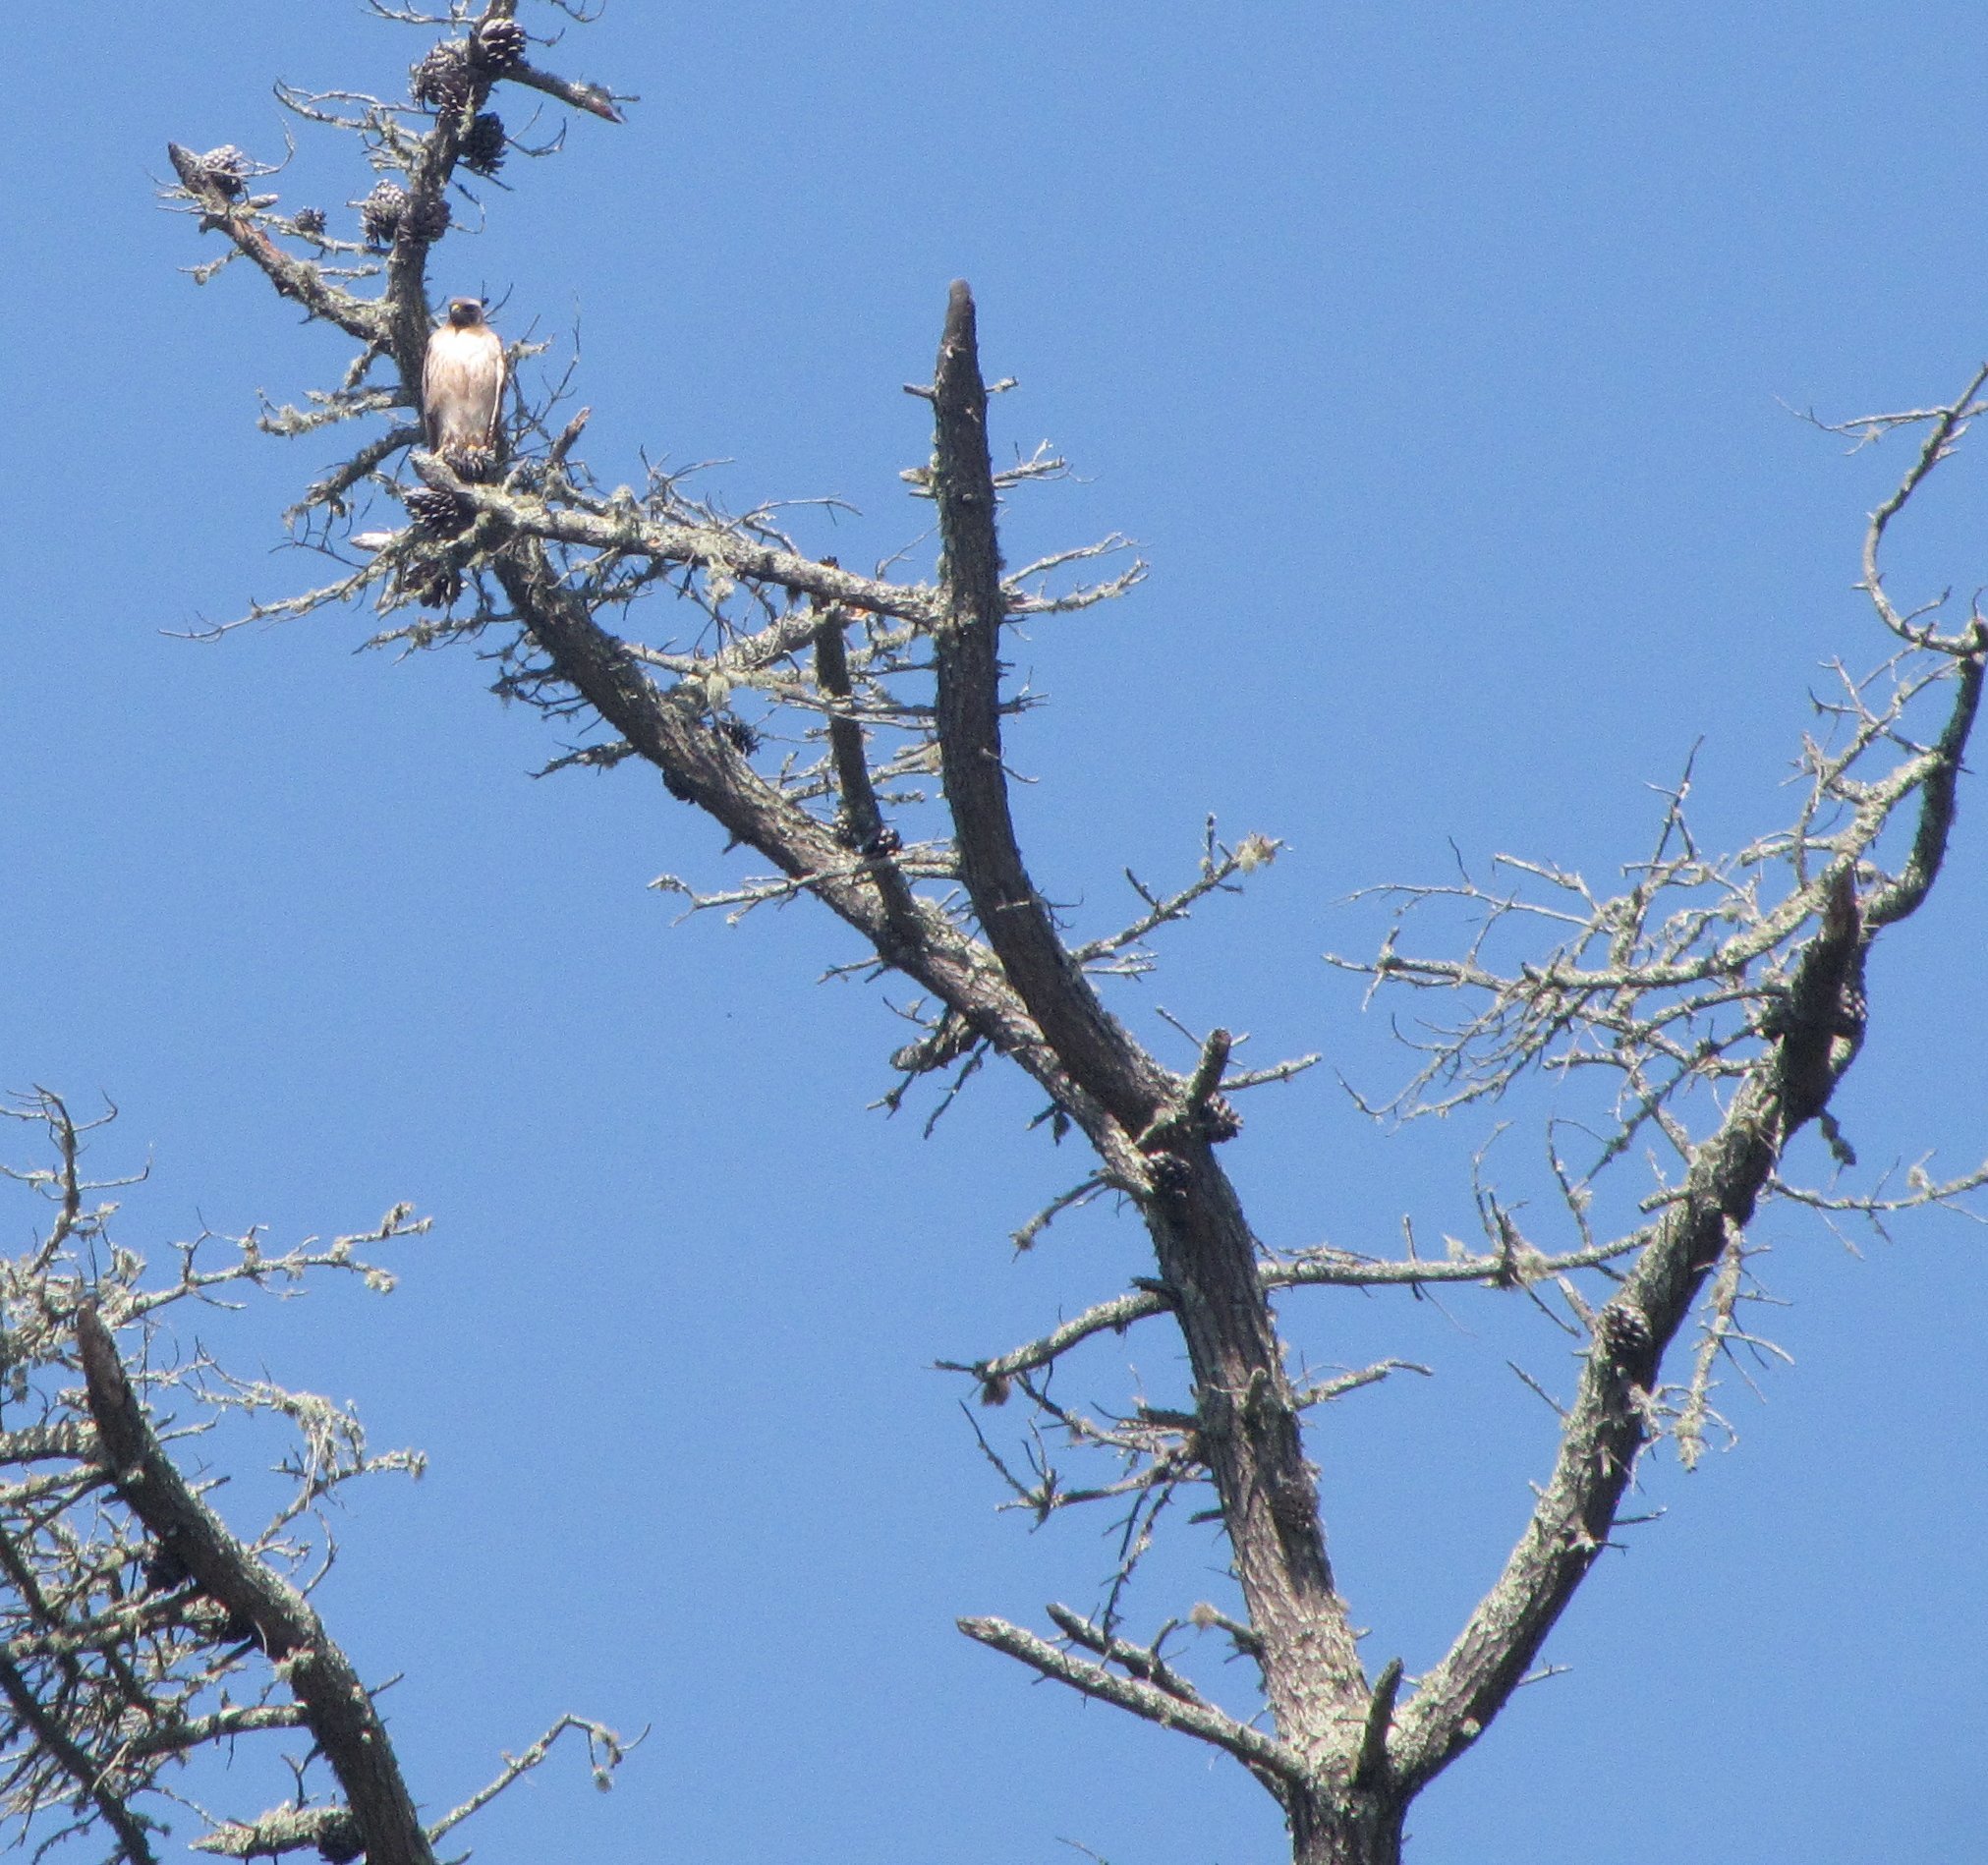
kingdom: Animalia
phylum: Chordata
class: Aves
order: Accipitriformes
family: Accipitridae
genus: Buteo
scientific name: Buteo jamaicensis
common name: Red-tailed hawk
